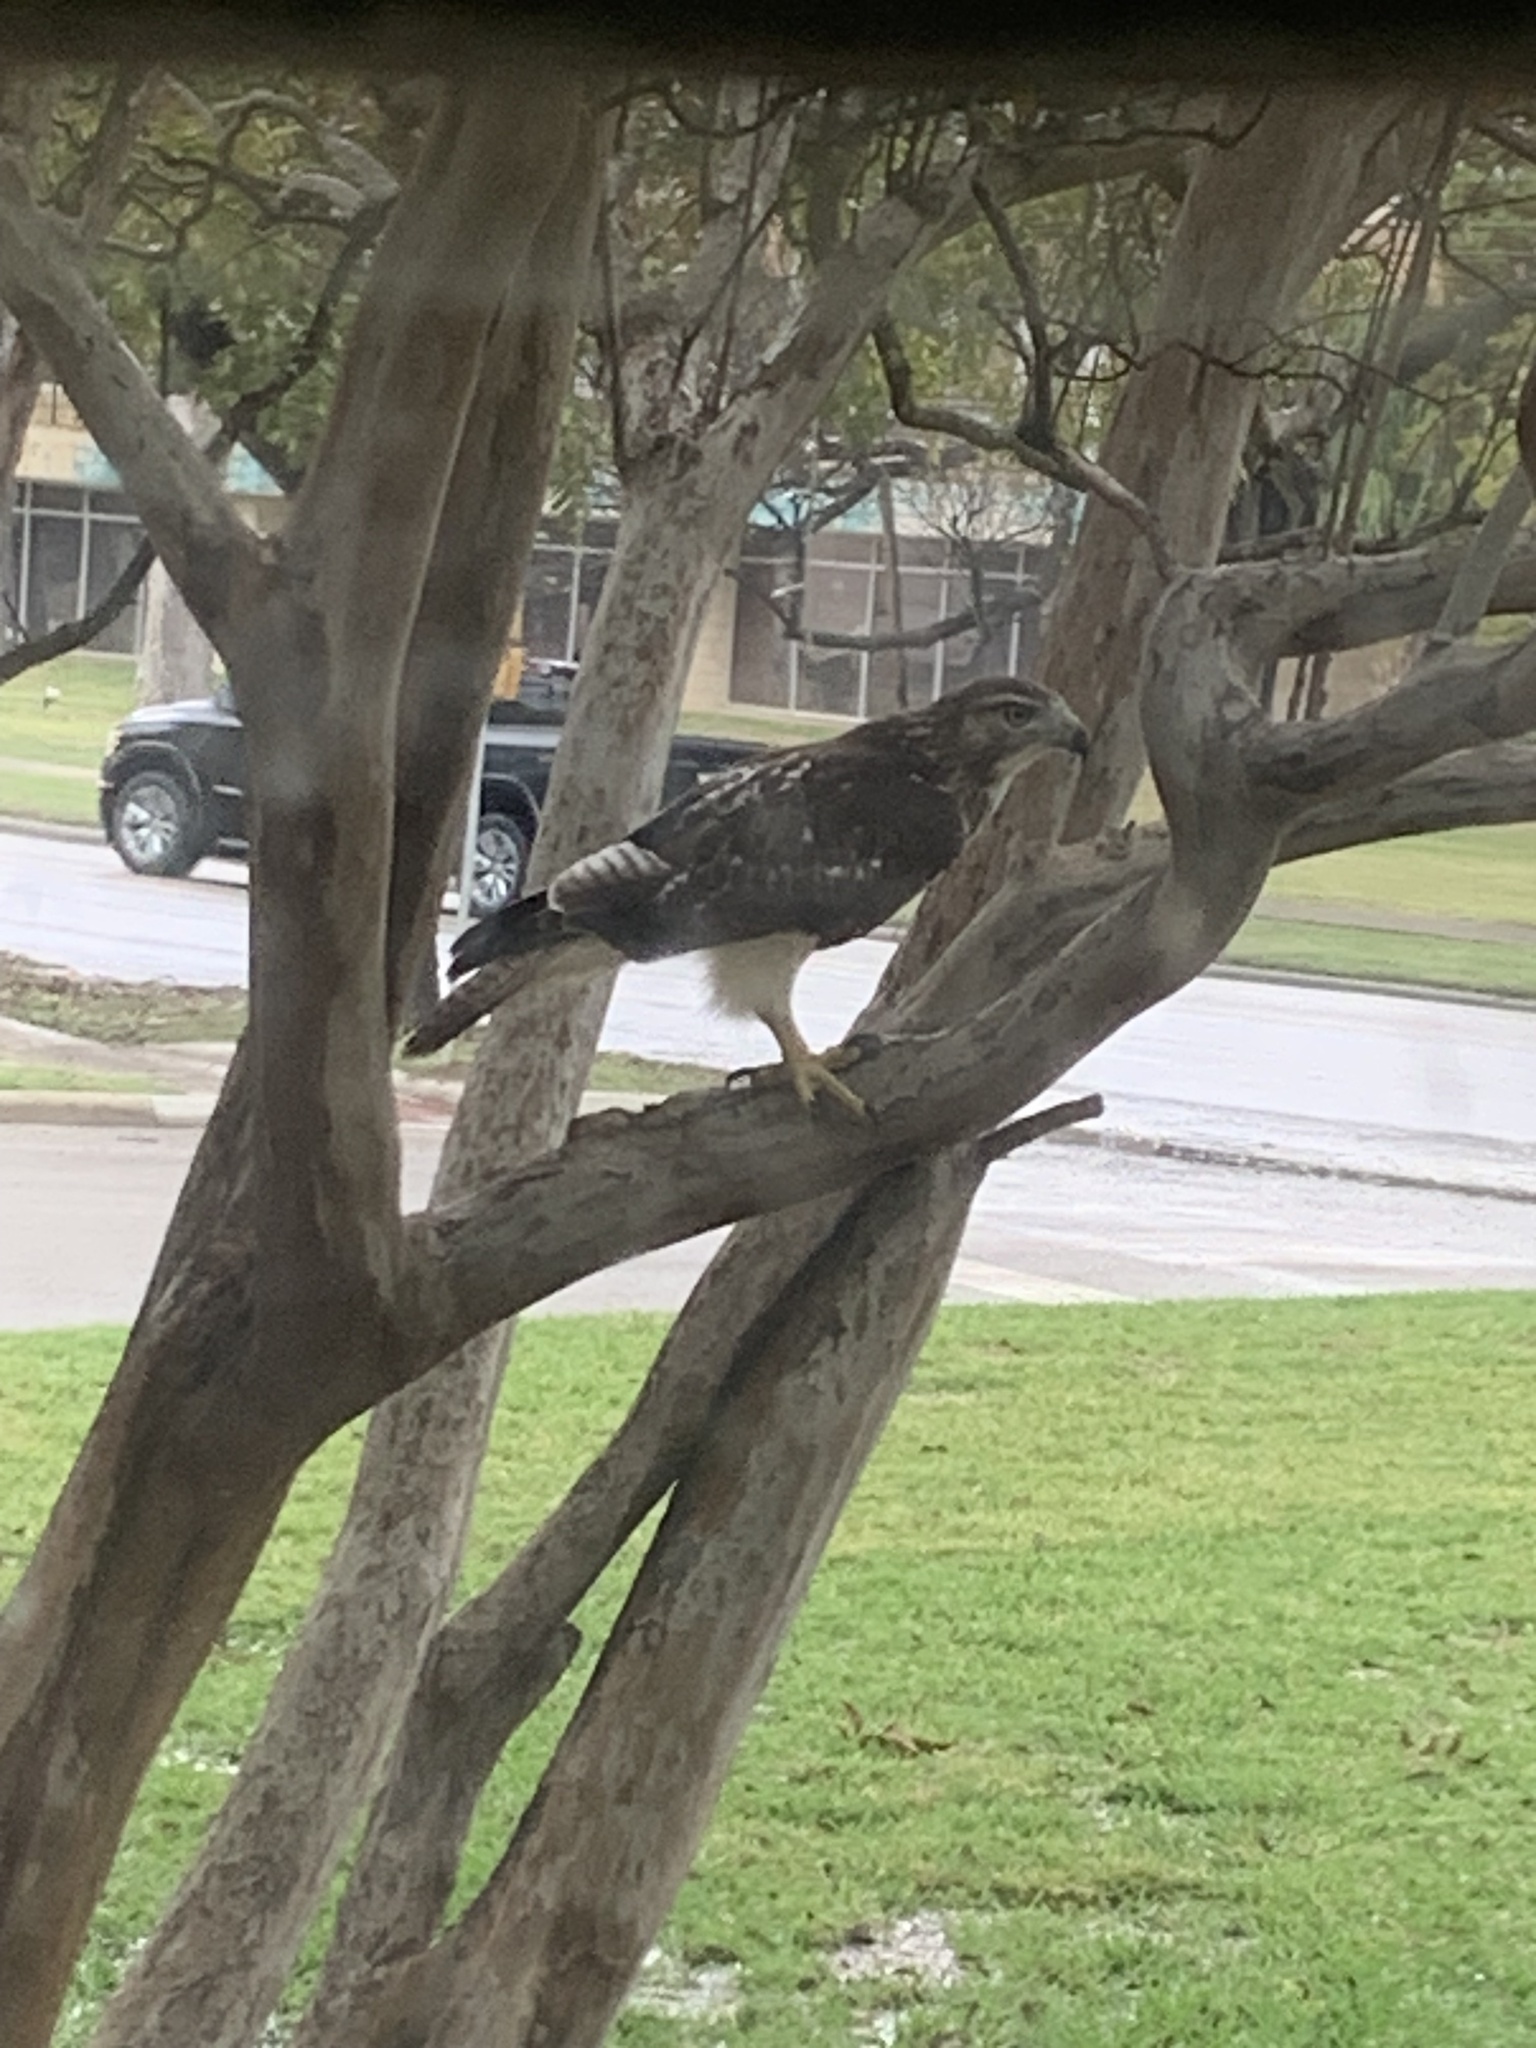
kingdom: Animalia
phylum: Chordata
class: Aves
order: Accipitriformes
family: Accipitridae
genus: Buteo
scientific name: Buteo jamaicensis
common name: Red-tailed hawk
